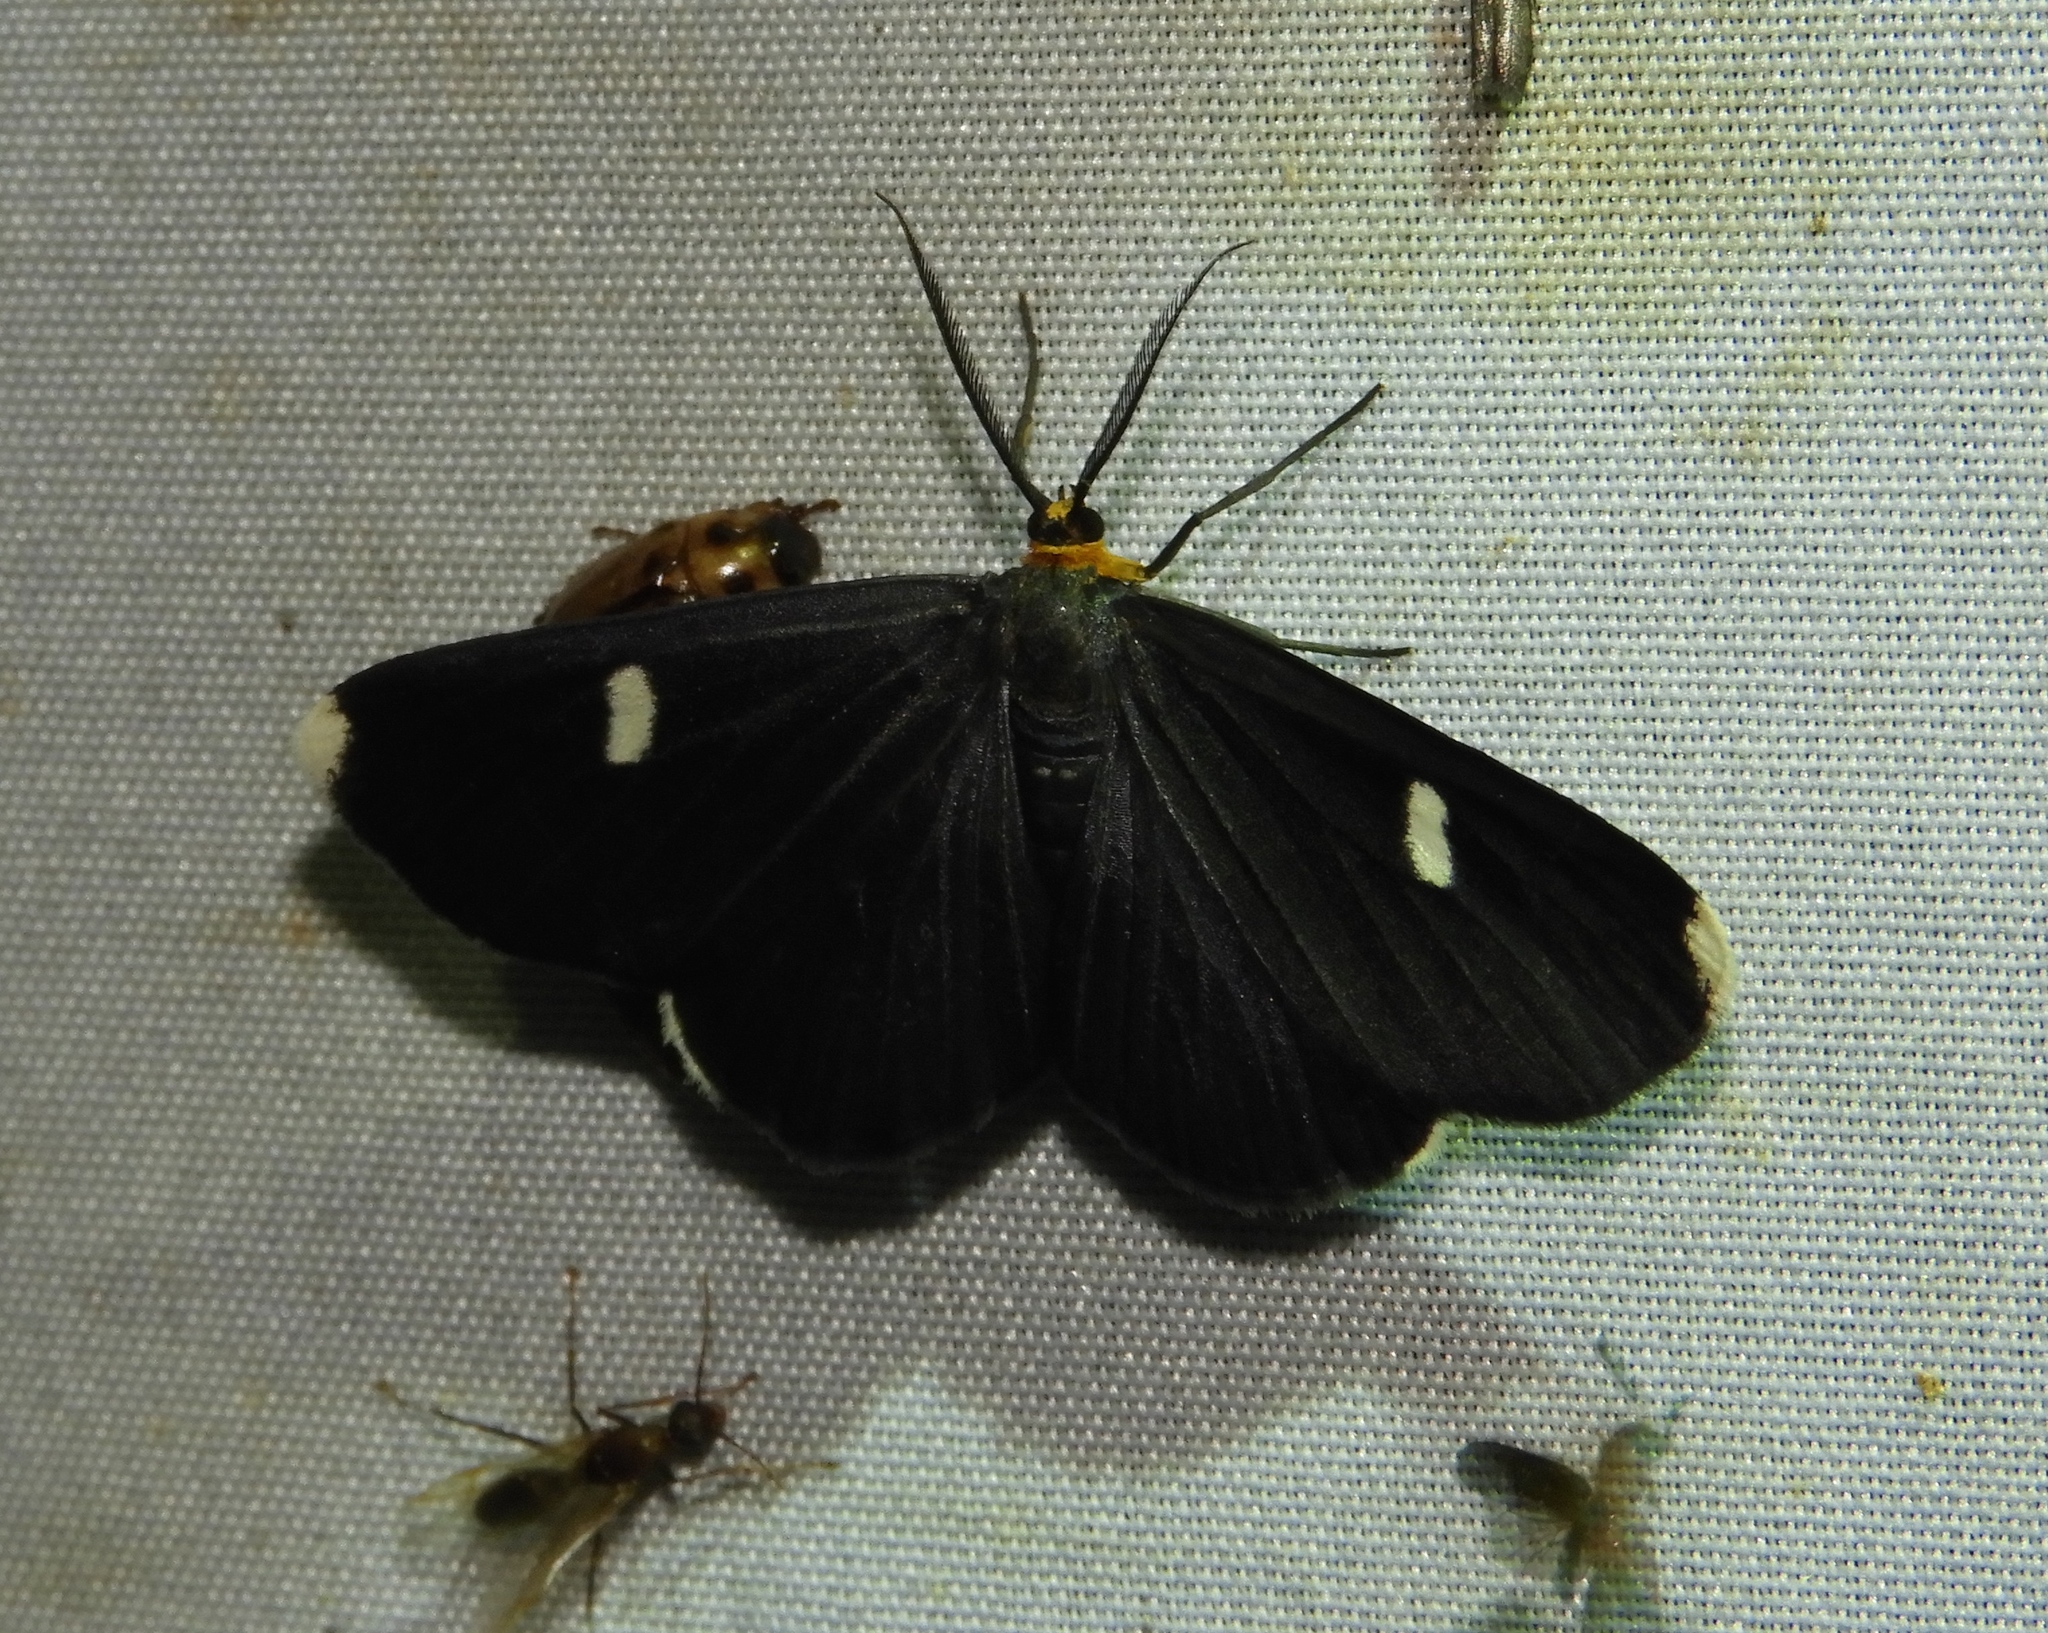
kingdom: Animalia
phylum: Arthropoda
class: Insecta
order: Lepidoptera
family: Geometridae
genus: Melanchroia
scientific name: Melanchroia vazquezae
